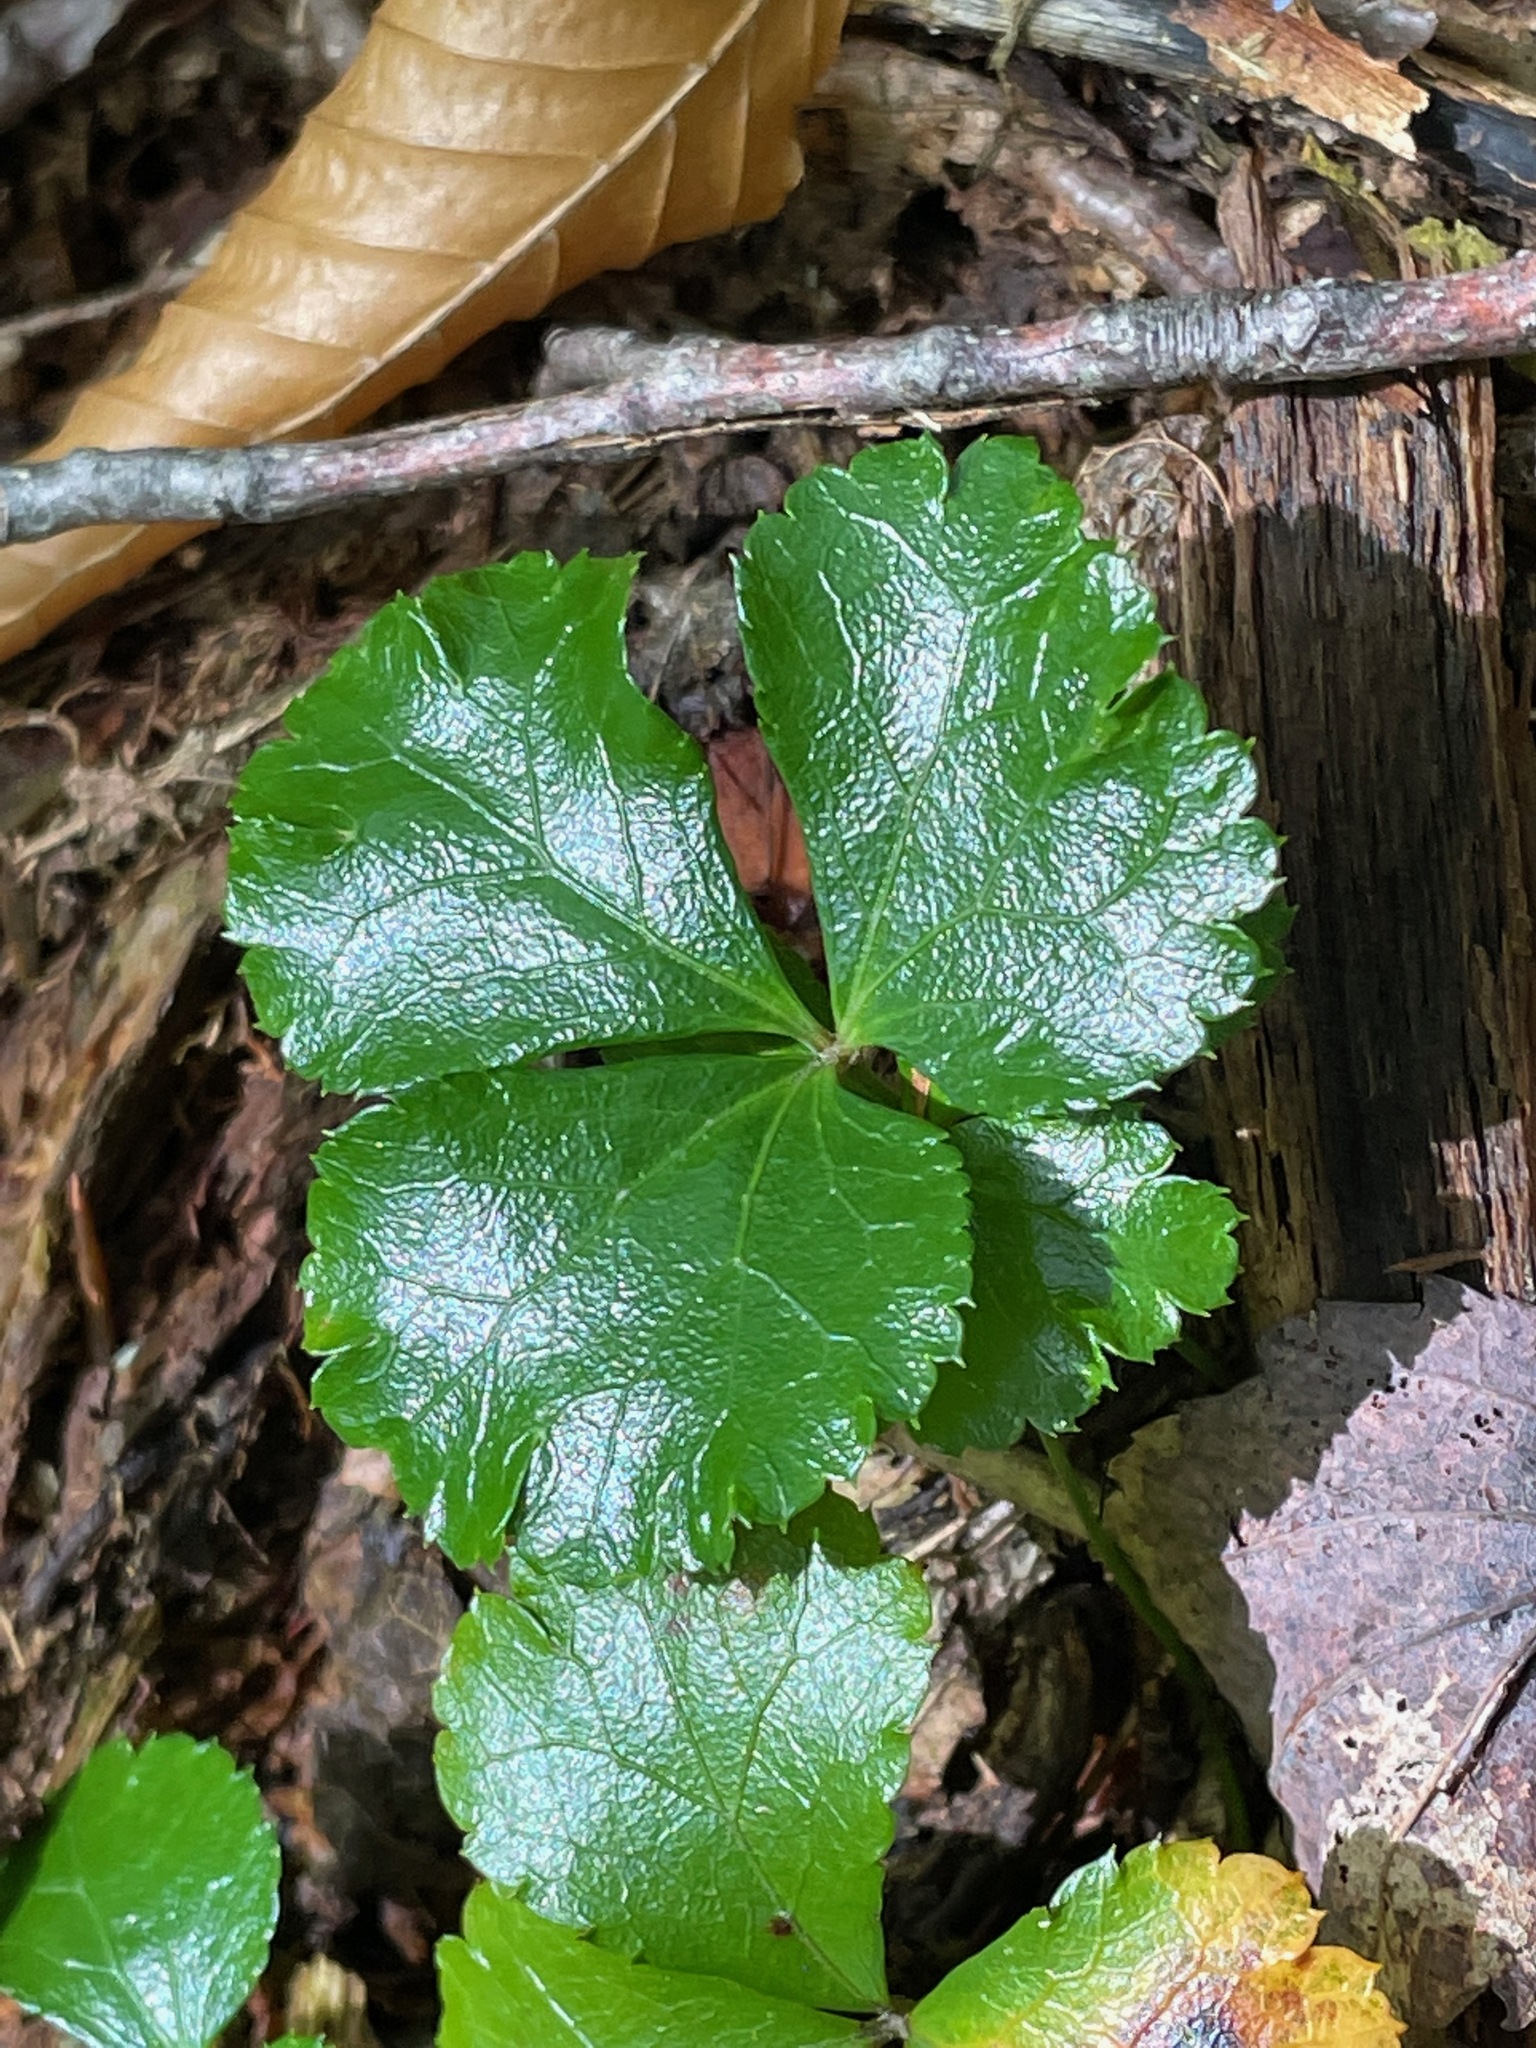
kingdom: Plantae
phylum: Tracheophyta
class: Magnoliopsida
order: Ranunculales
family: Ranunculaceae
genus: Coptis
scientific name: Coptis trifolia
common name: Canker-root
